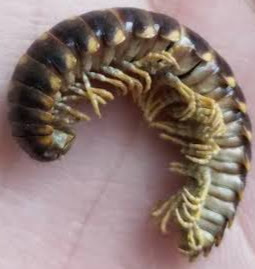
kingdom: Animalia
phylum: Arthropoda
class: Diplopoda
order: Polydesmida
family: Xystodesmidae
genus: Rudiloria
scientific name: Rudiloria trimaculata
